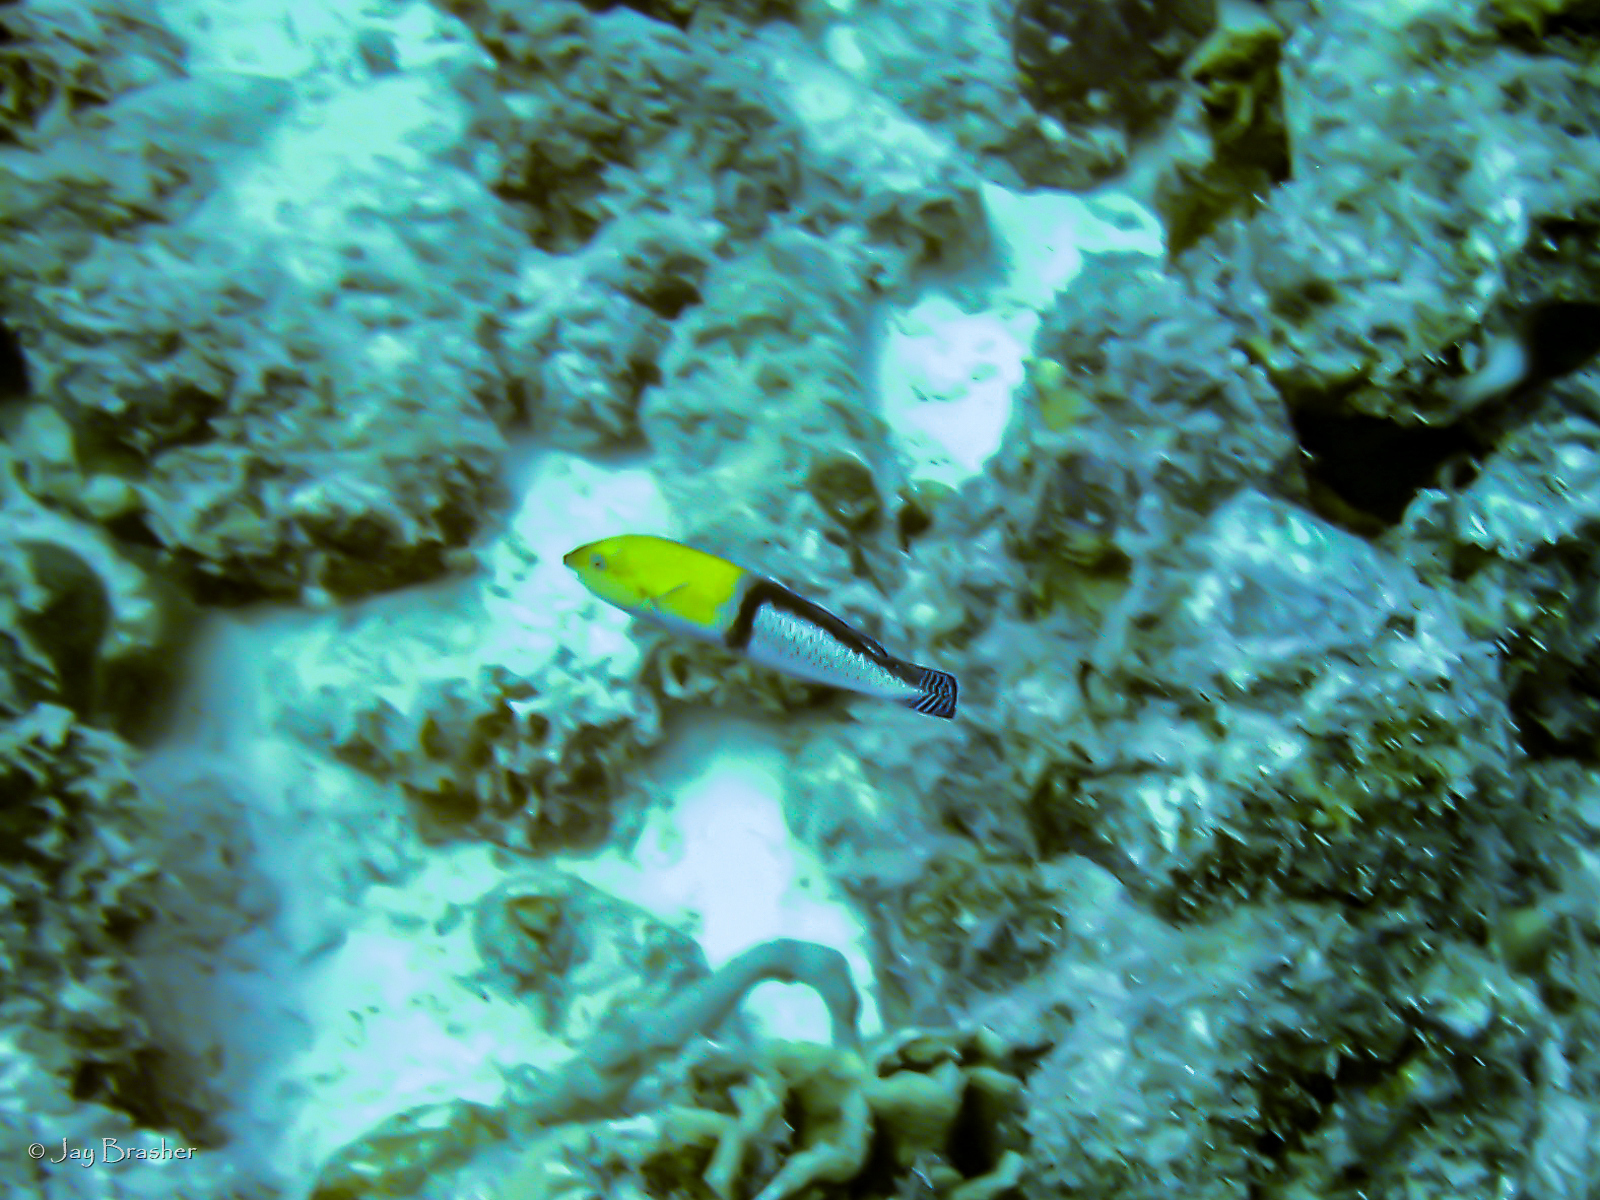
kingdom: Animalia
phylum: Chordata
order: Perciformes
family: Labridae
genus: Halichoeres
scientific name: Halichoeres garnoti
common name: Yellowhead wrasse
